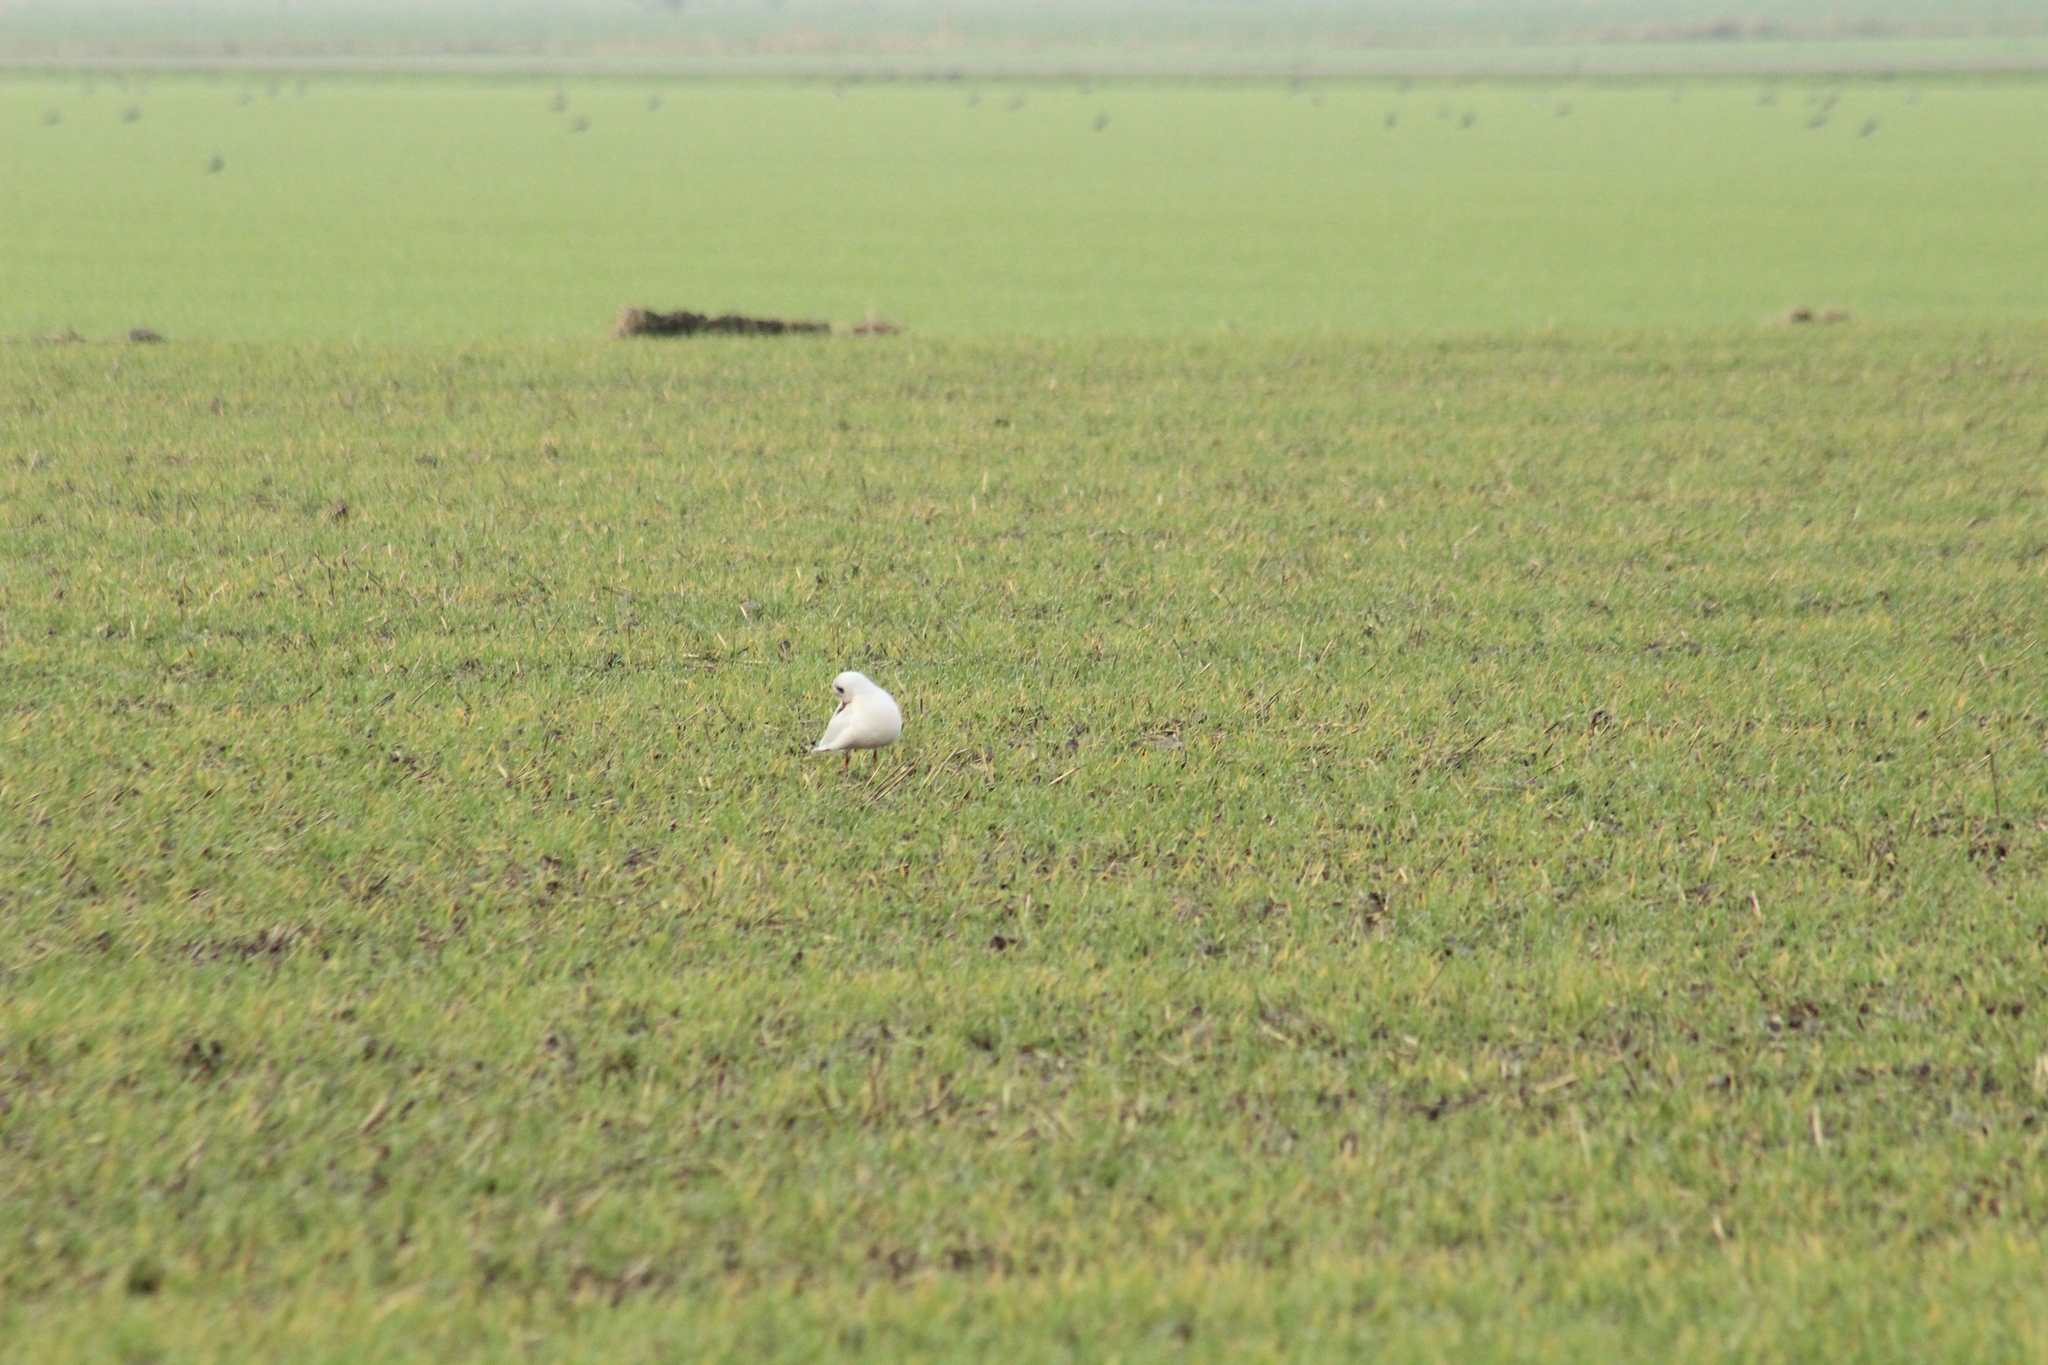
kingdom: Animalia
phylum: Chordata
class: Aves
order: Charadriiformes
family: Laridae
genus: Chroicocephalus
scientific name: Chroicocephalus ridibundus
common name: Black-headed gull
